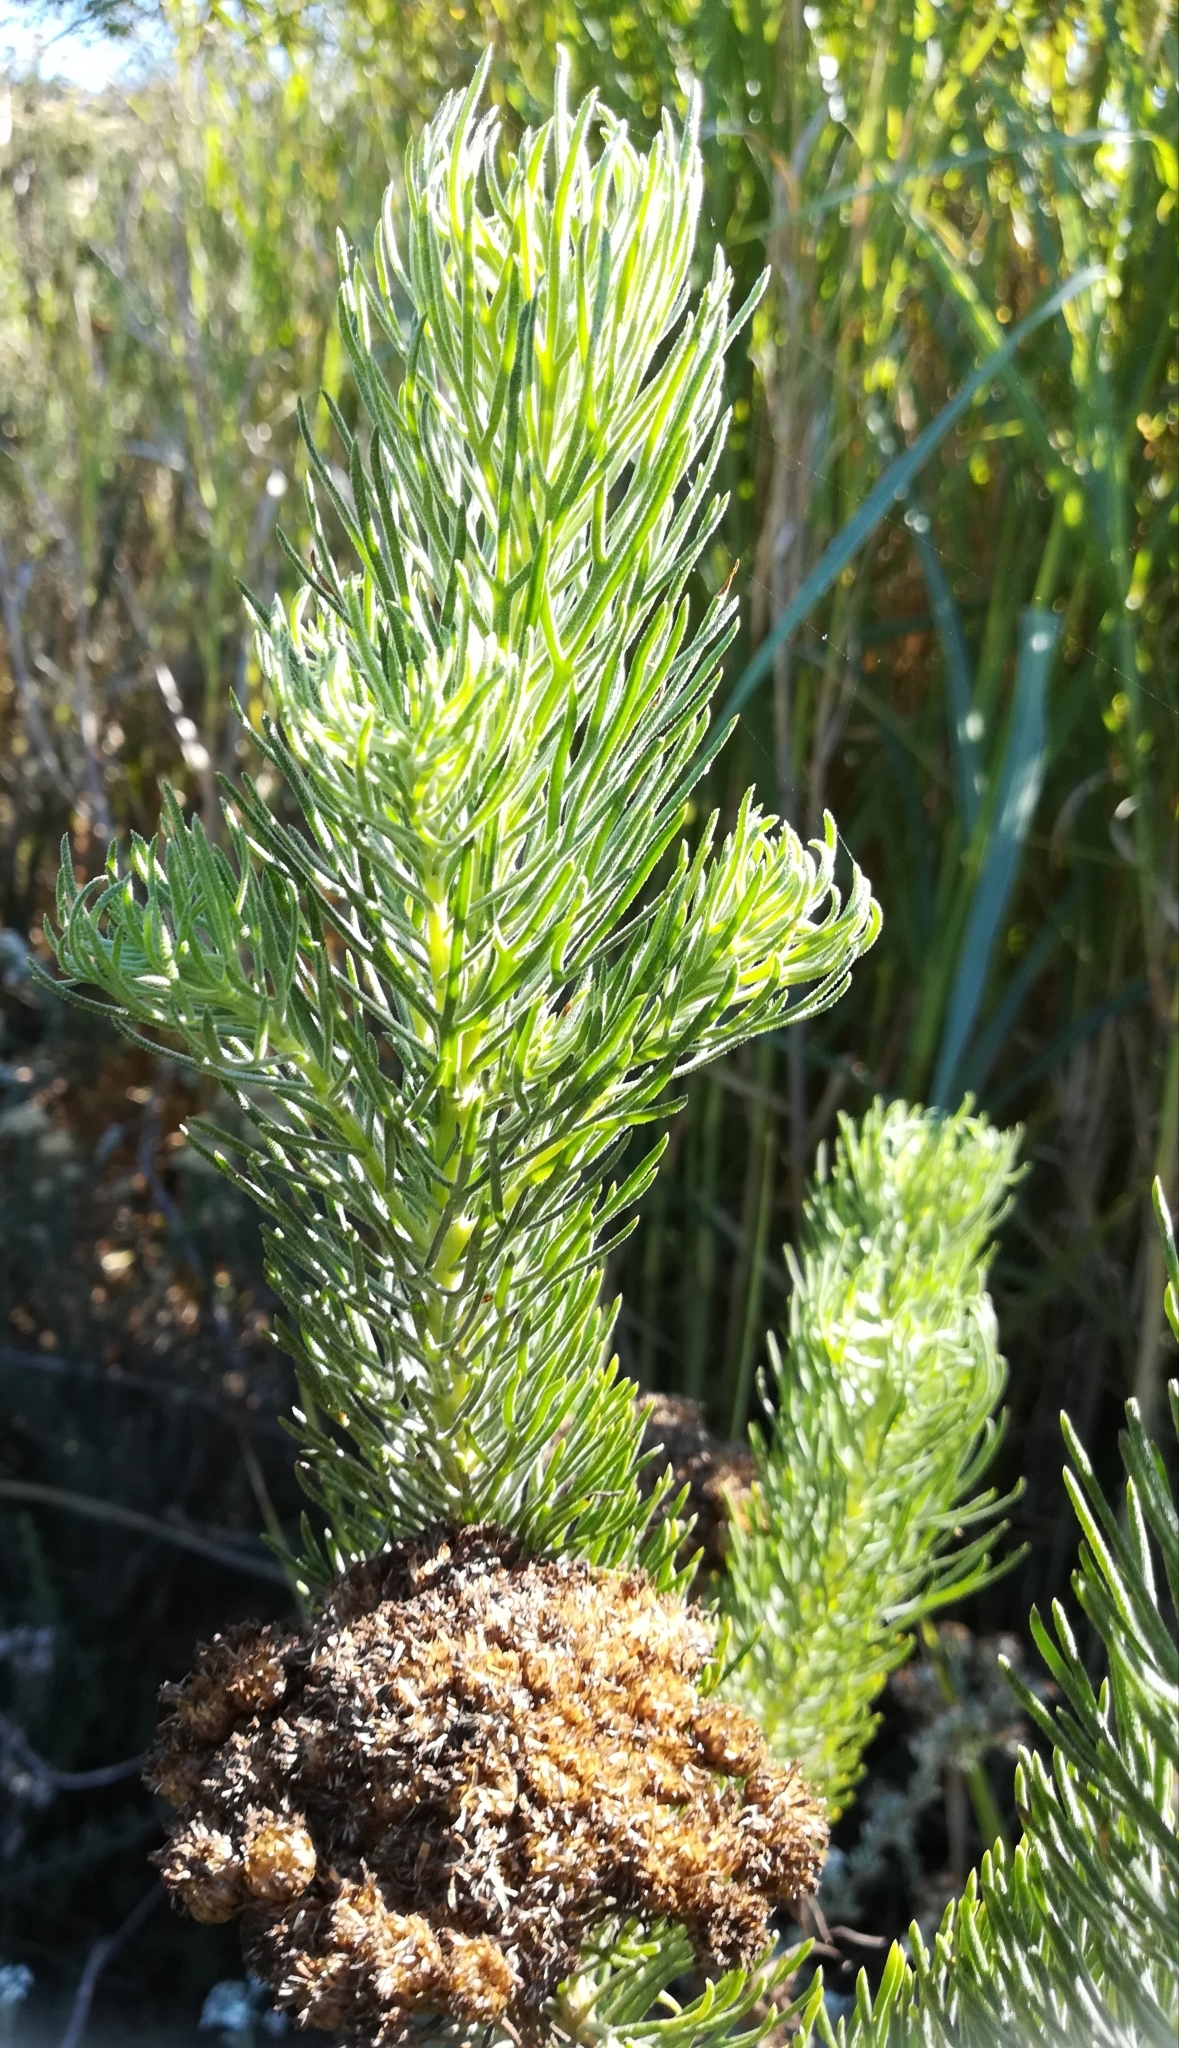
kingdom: Plantae
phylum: Tracheophyta
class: Magnoliopsida
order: Asterales
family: Asteraceae
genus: Athanasia
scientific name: Athanasia crithmifolia
